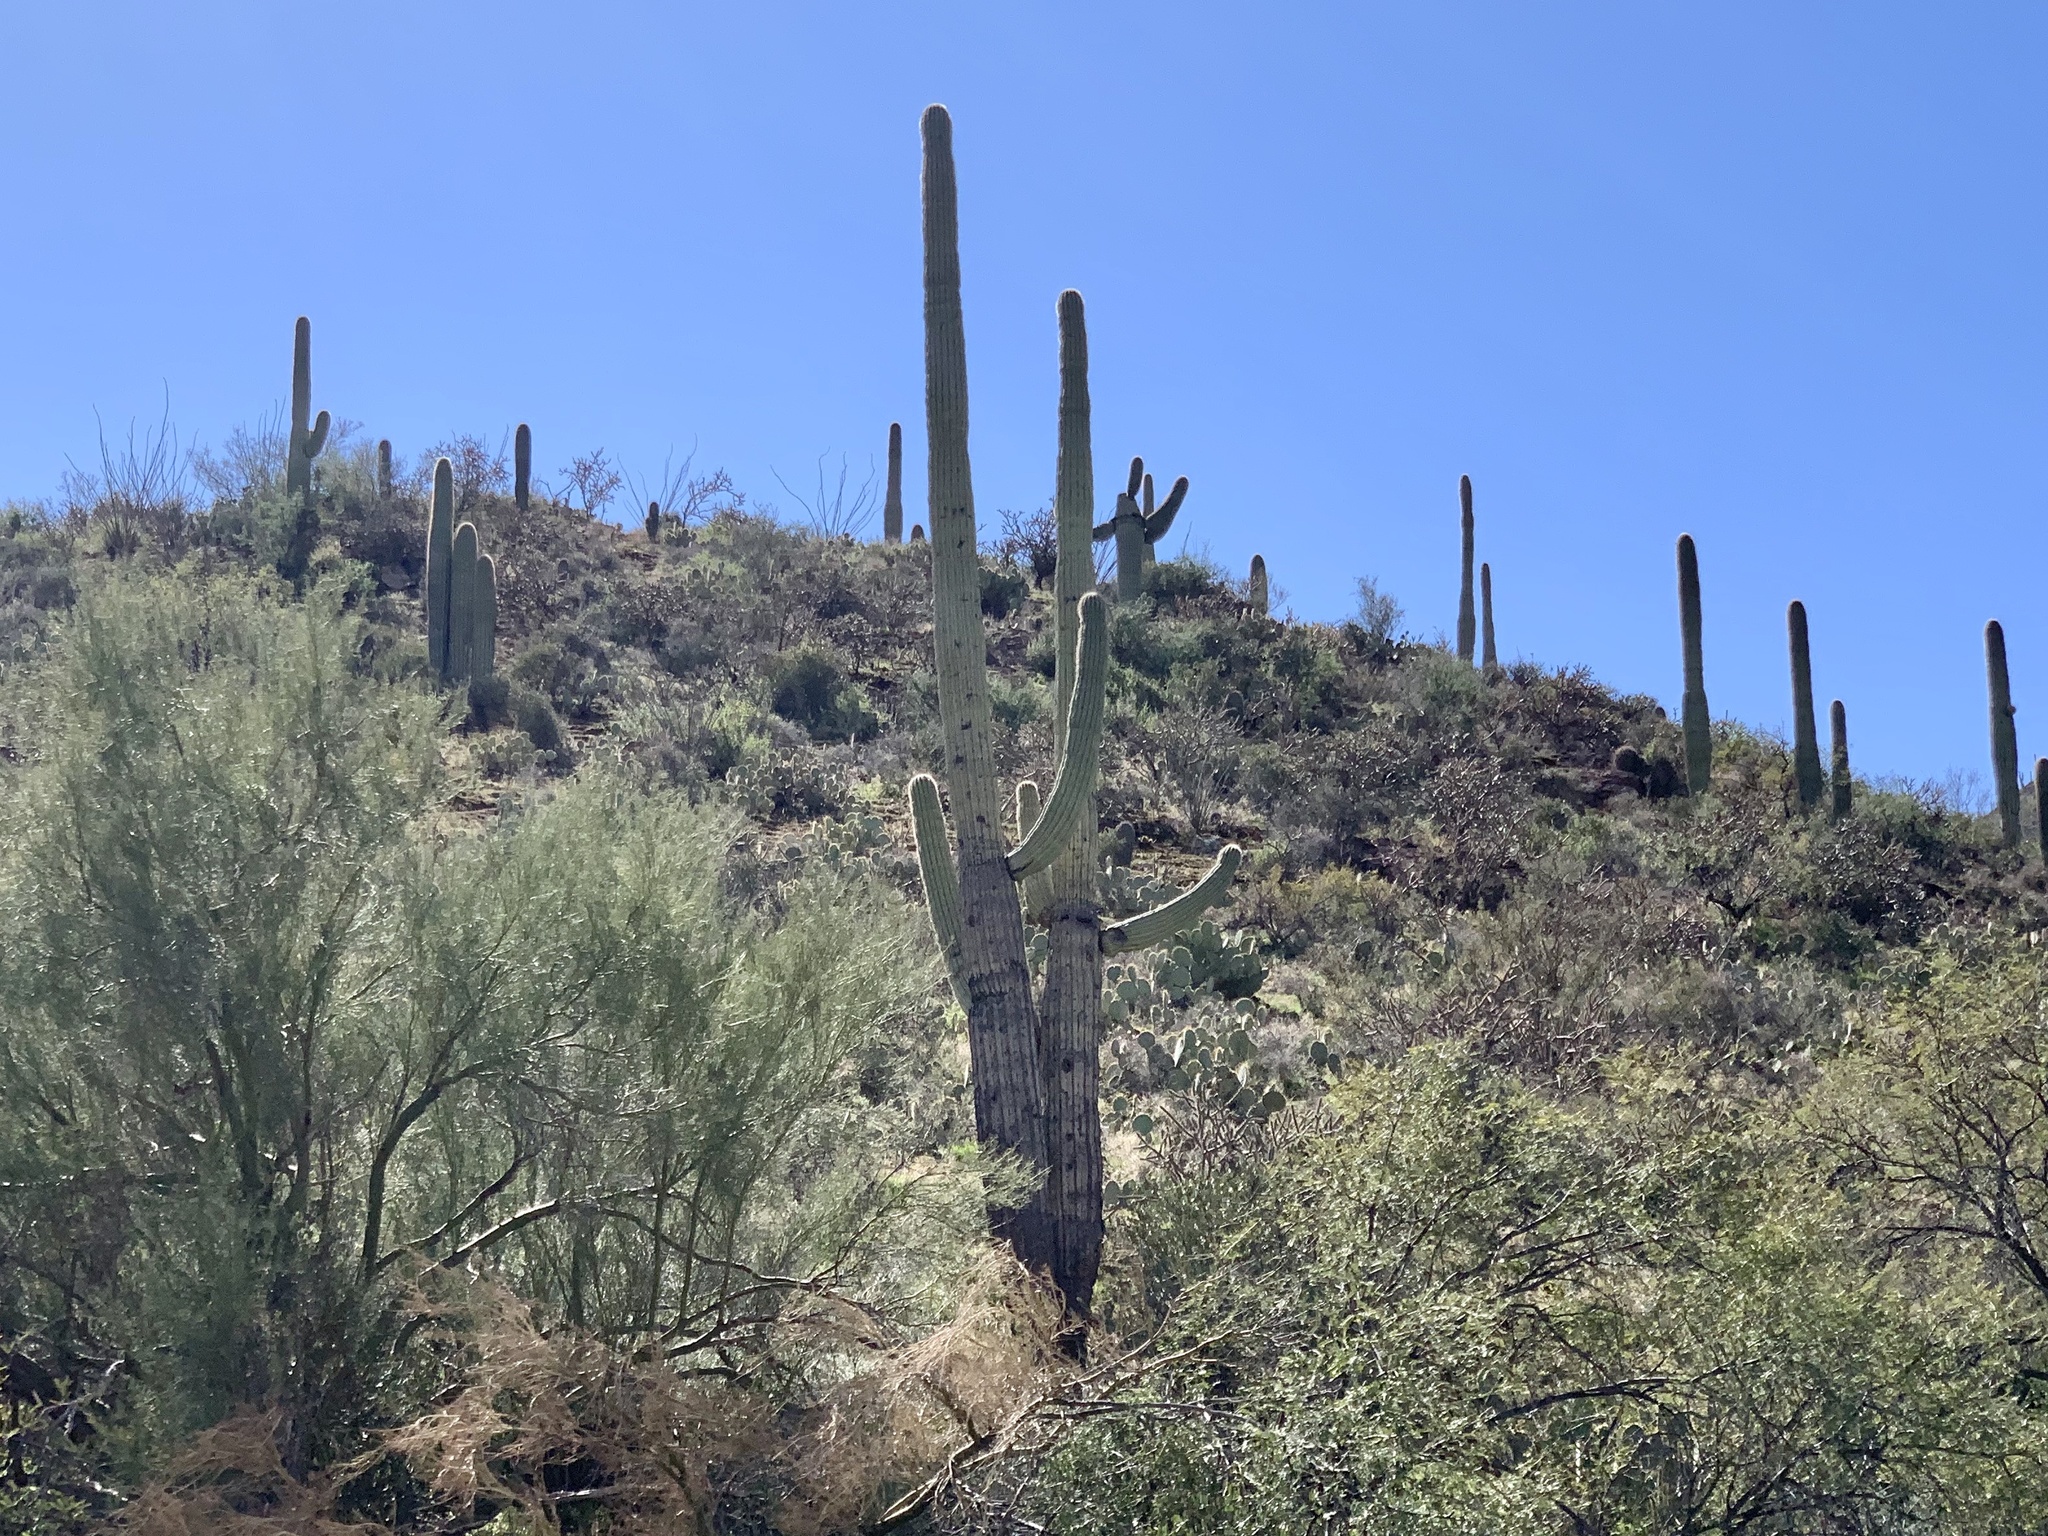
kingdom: Plantae
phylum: Tracheophyta
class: Magnoliopsida
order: Caryophyllales
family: Cactaceae
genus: Carnegiea
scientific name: Carnegiea gigantea
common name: Saguaro
